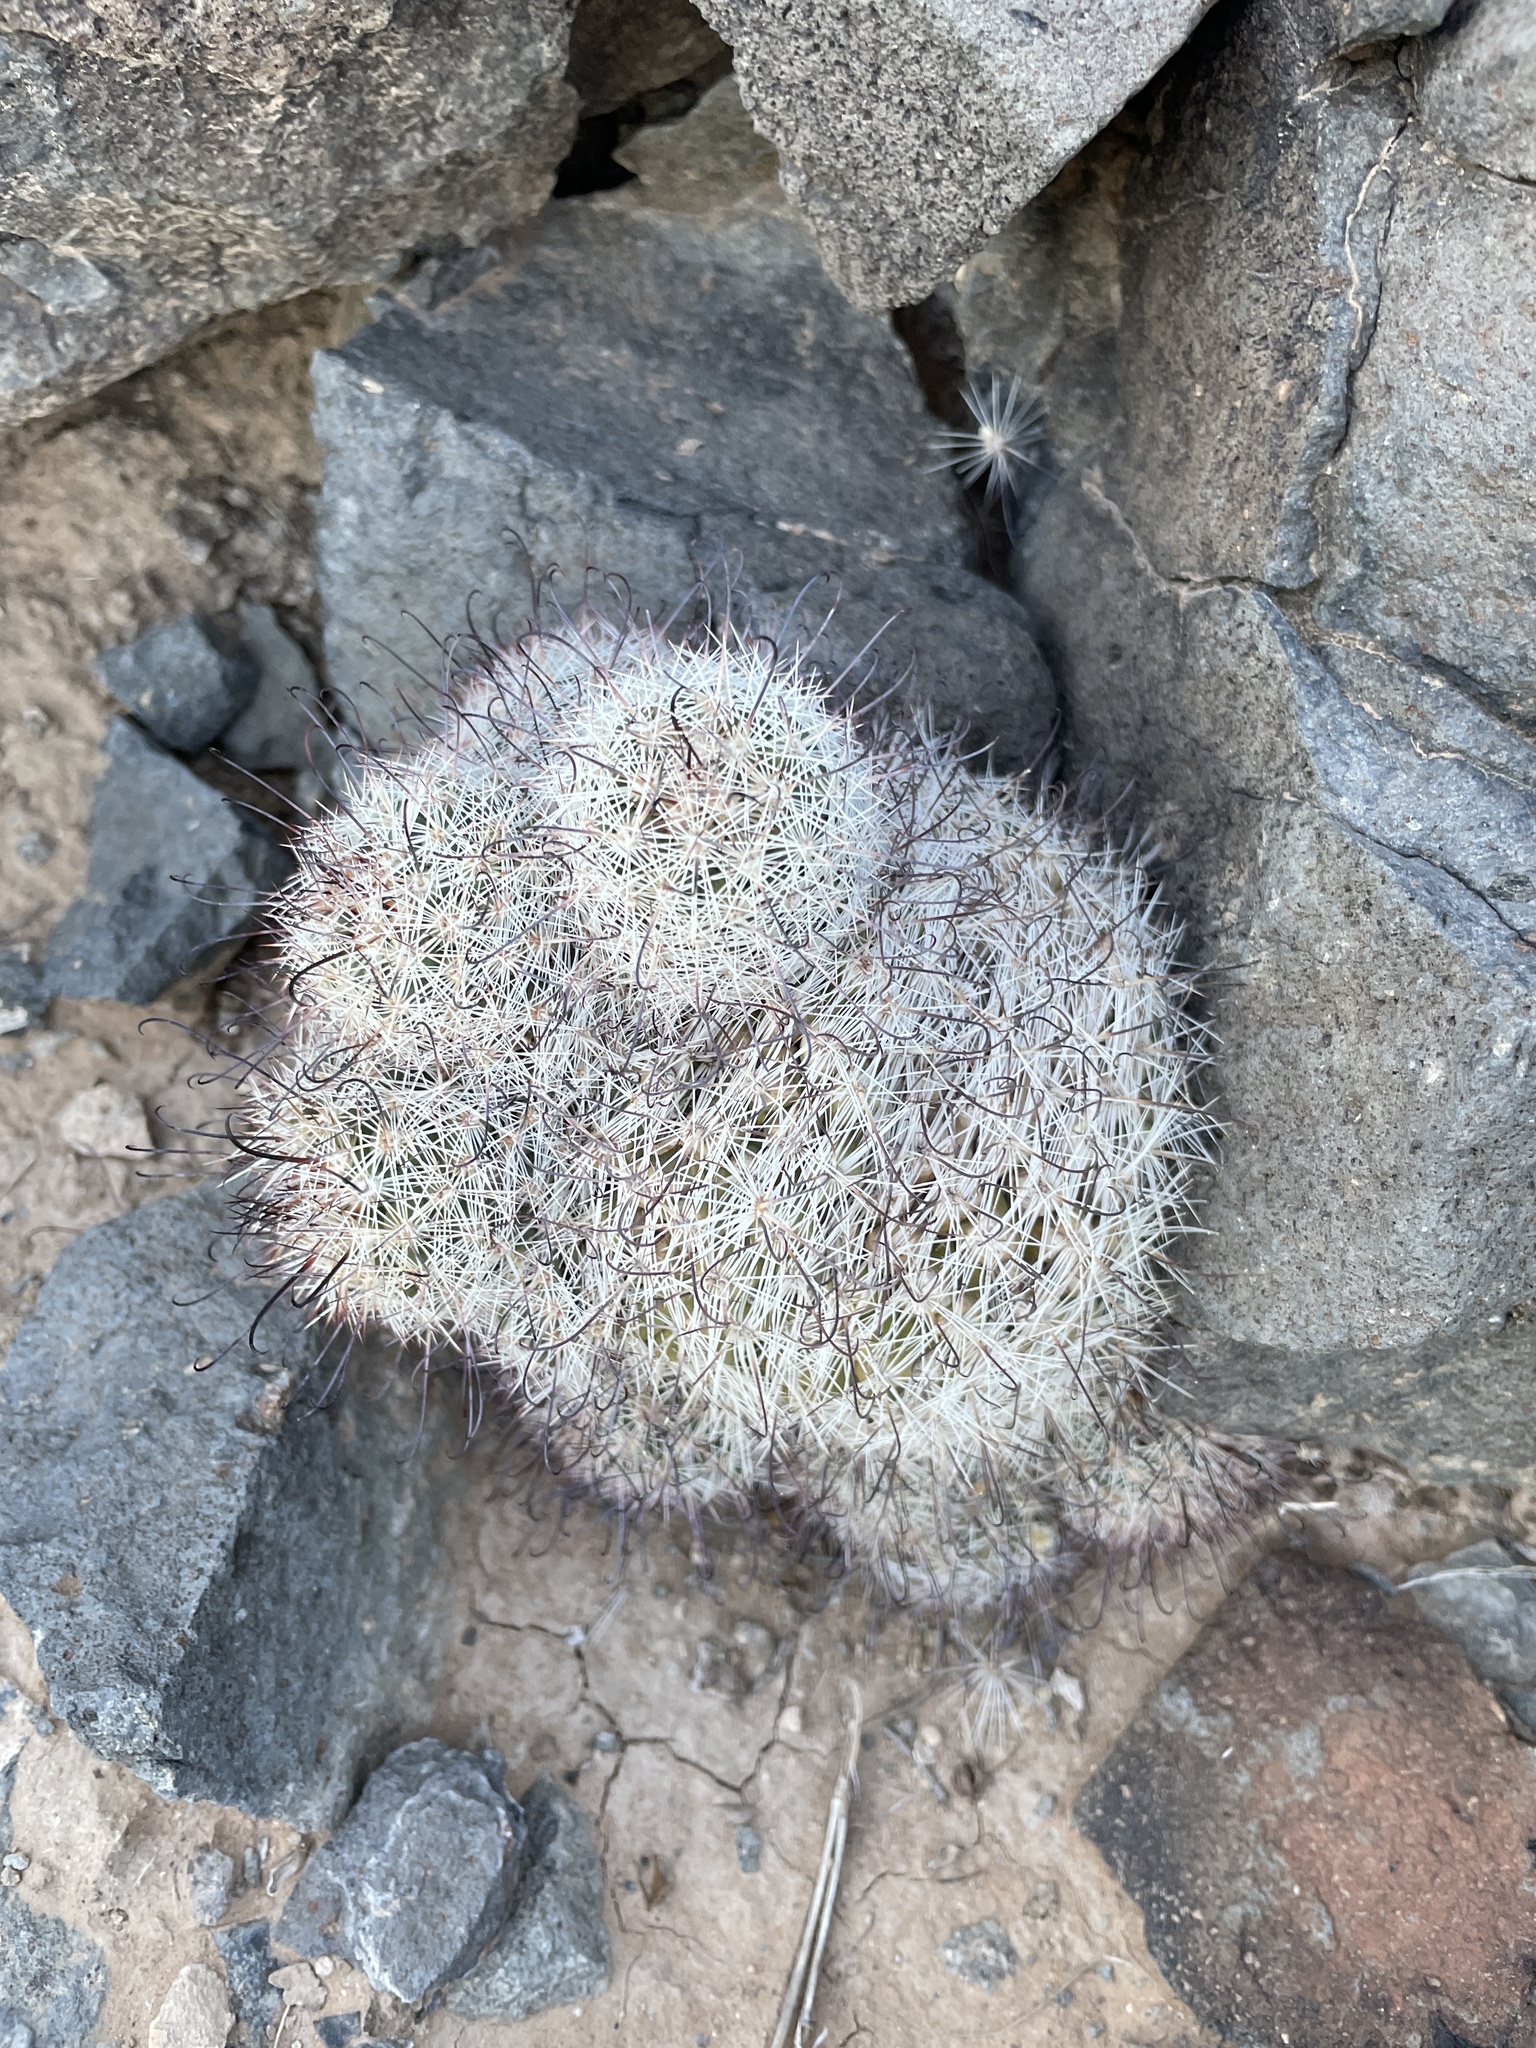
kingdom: Plantae
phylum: Tracheophyta
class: Magnoliopsida
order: Caryophyllales
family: Cactaceae
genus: Cochemiea
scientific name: Cochemiea grahamii
